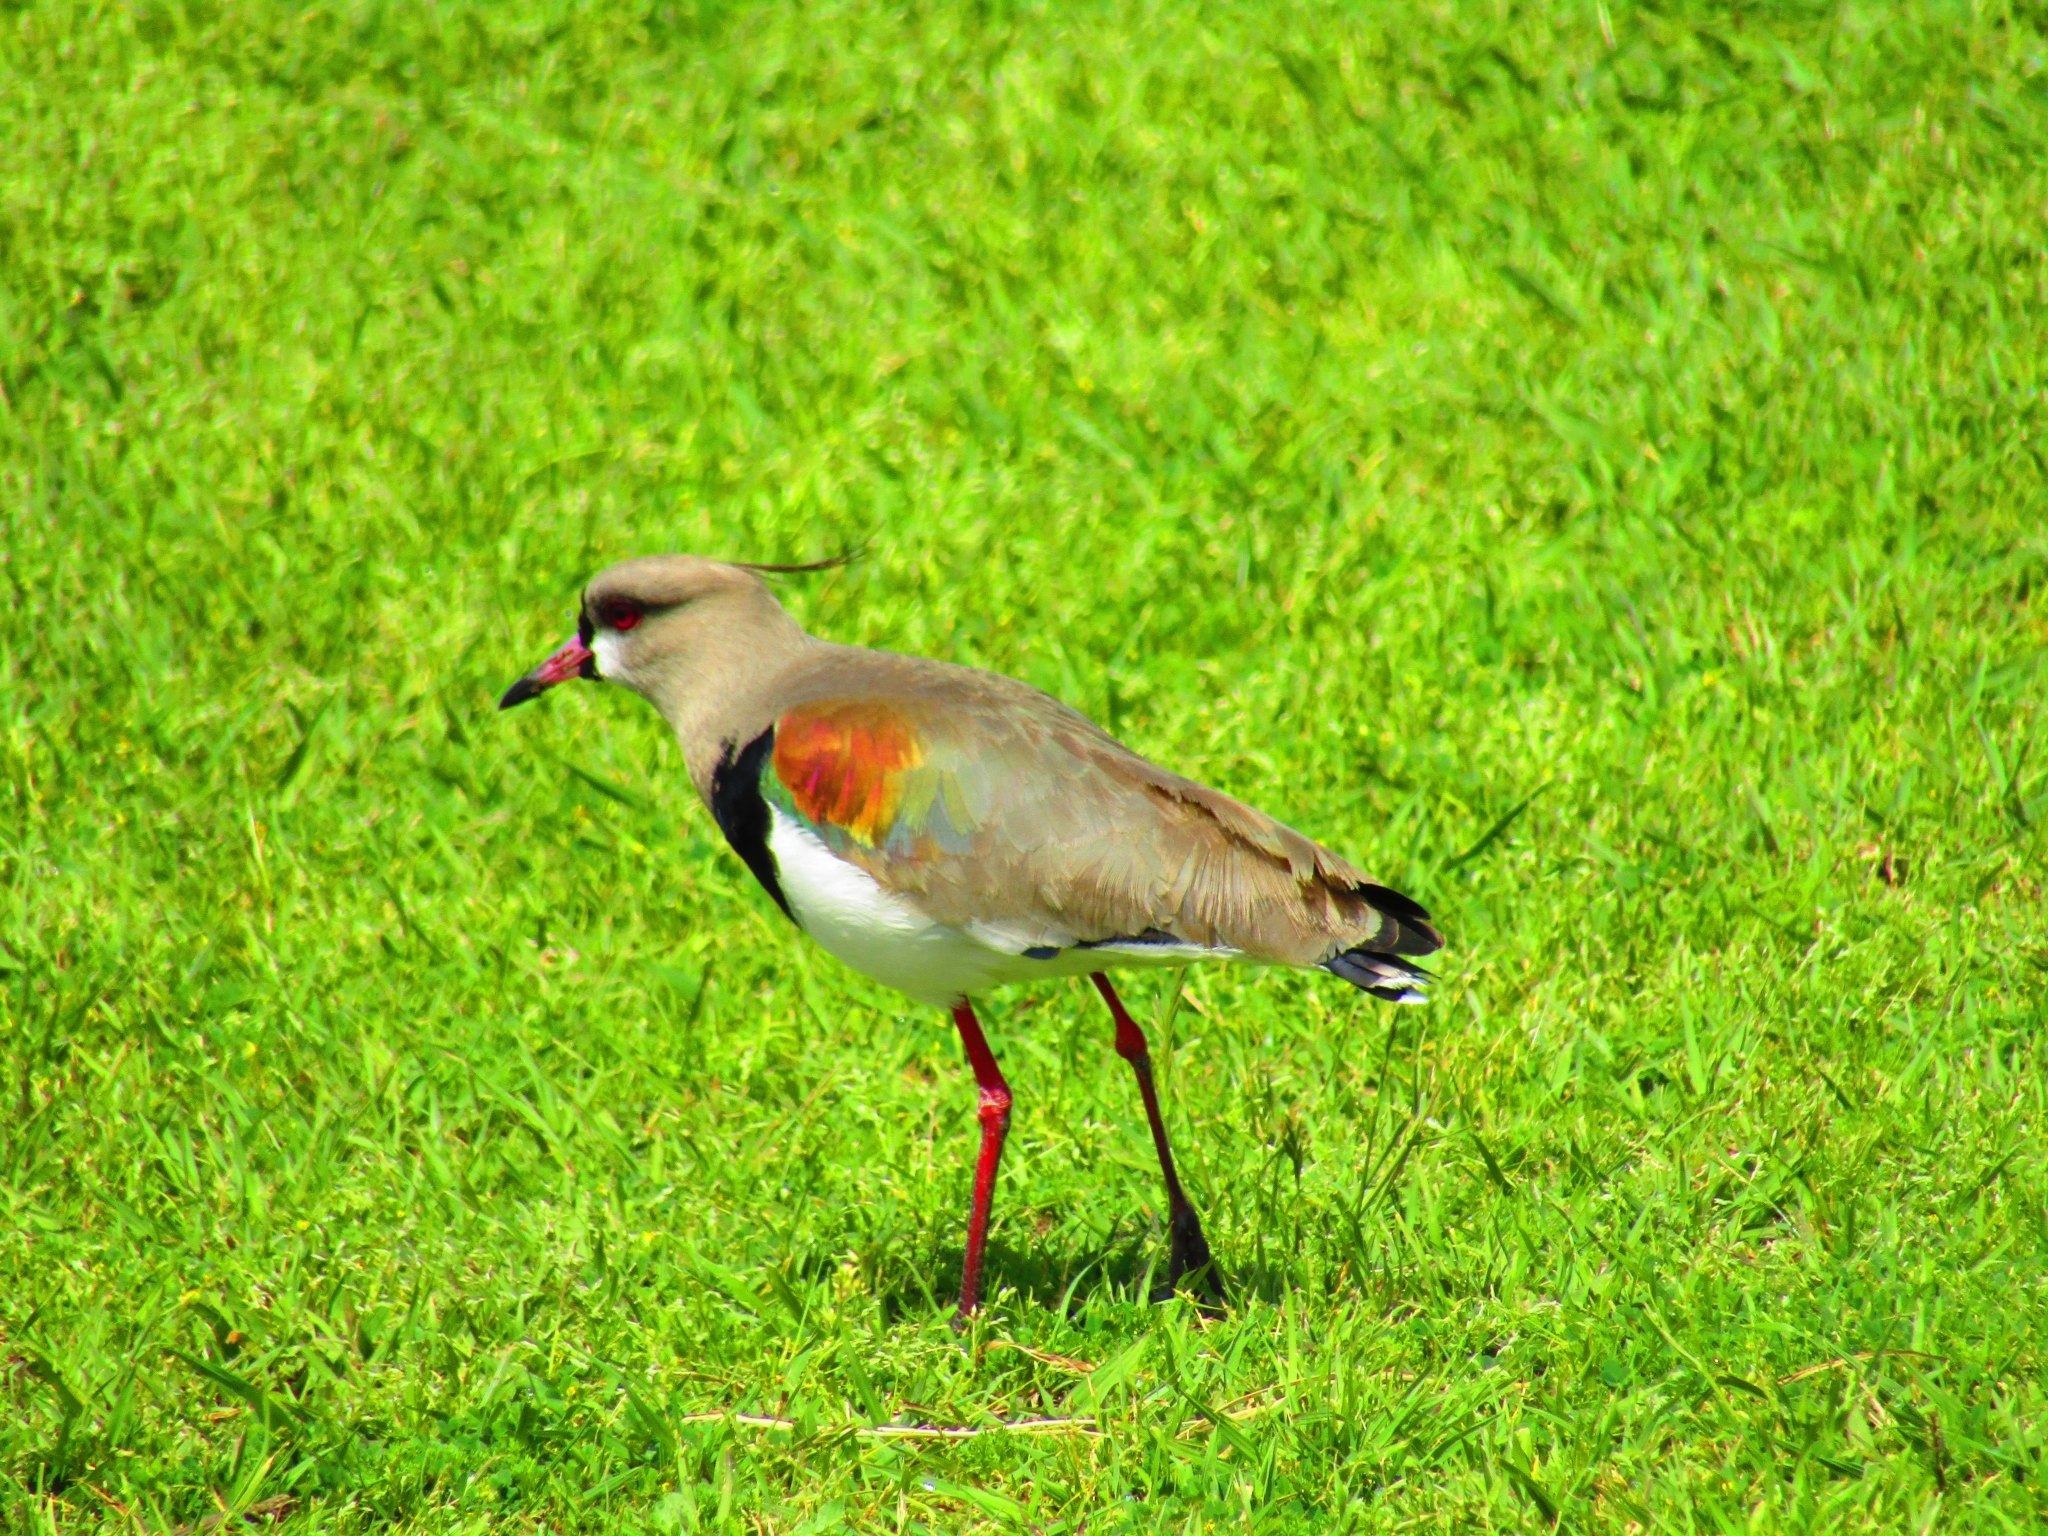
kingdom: Animalia
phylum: Chordata
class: Aves
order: Charadriiformes
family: Charadriidae
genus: Vanellus
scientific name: Vanellus chilensis
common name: Southern lapwing
